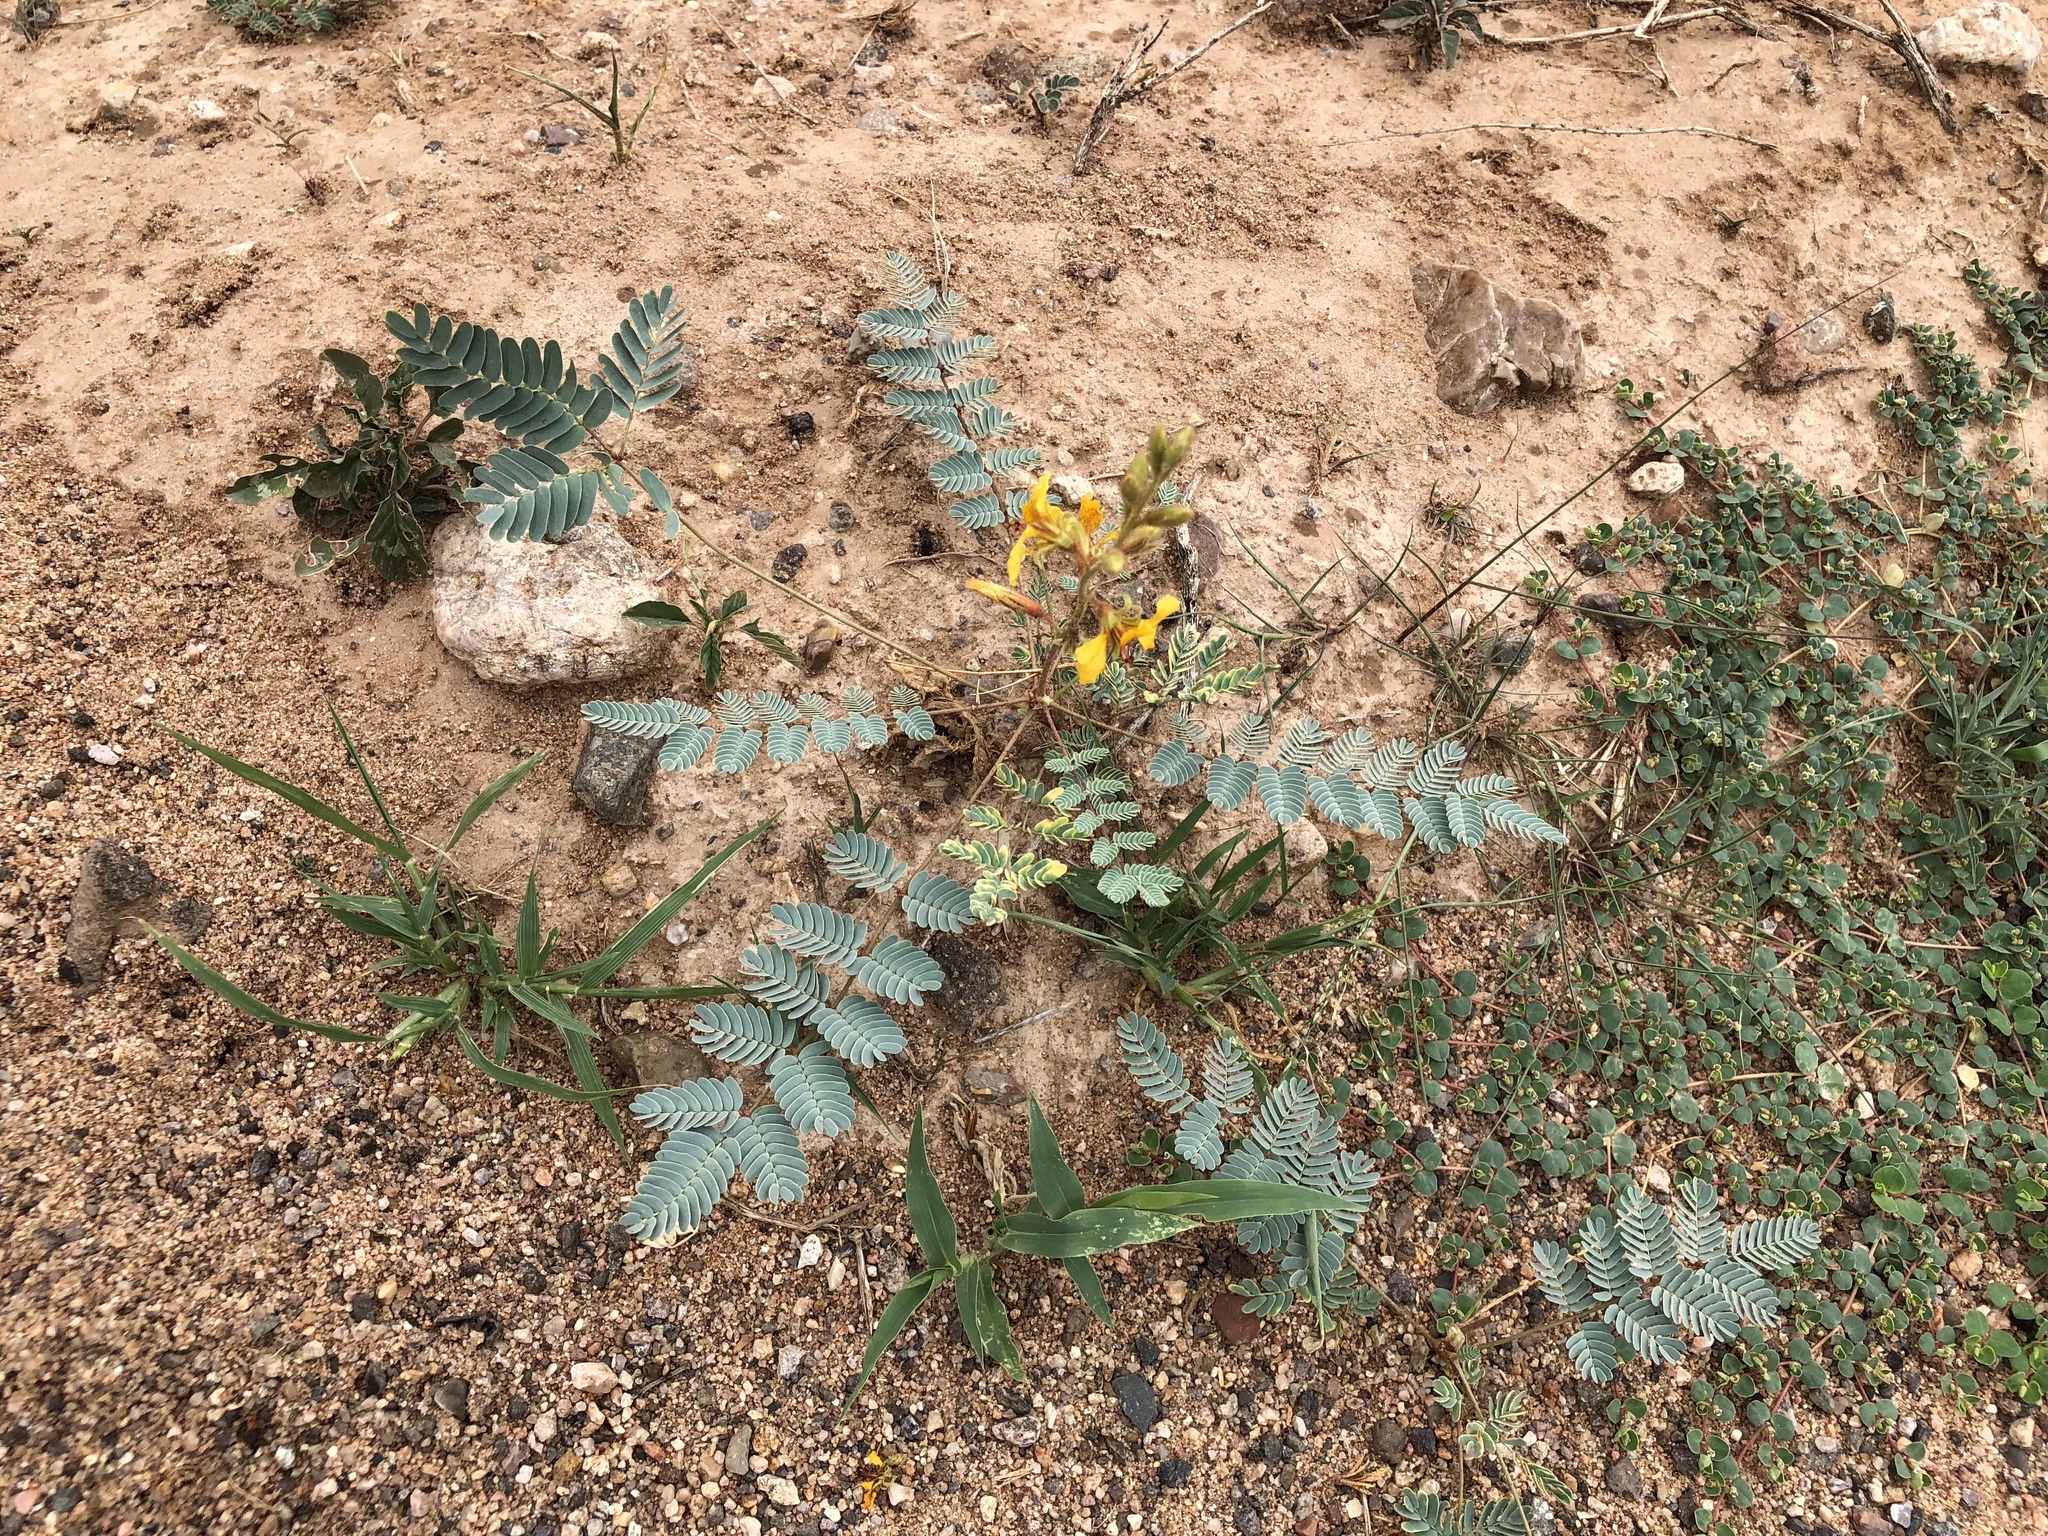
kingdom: Plantae
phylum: Tracheophyta
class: Magnoliopsida
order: Fabales
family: Fabaceae
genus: Hoffmannseggia
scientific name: Hoffmannseggia glauca
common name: Pignut
